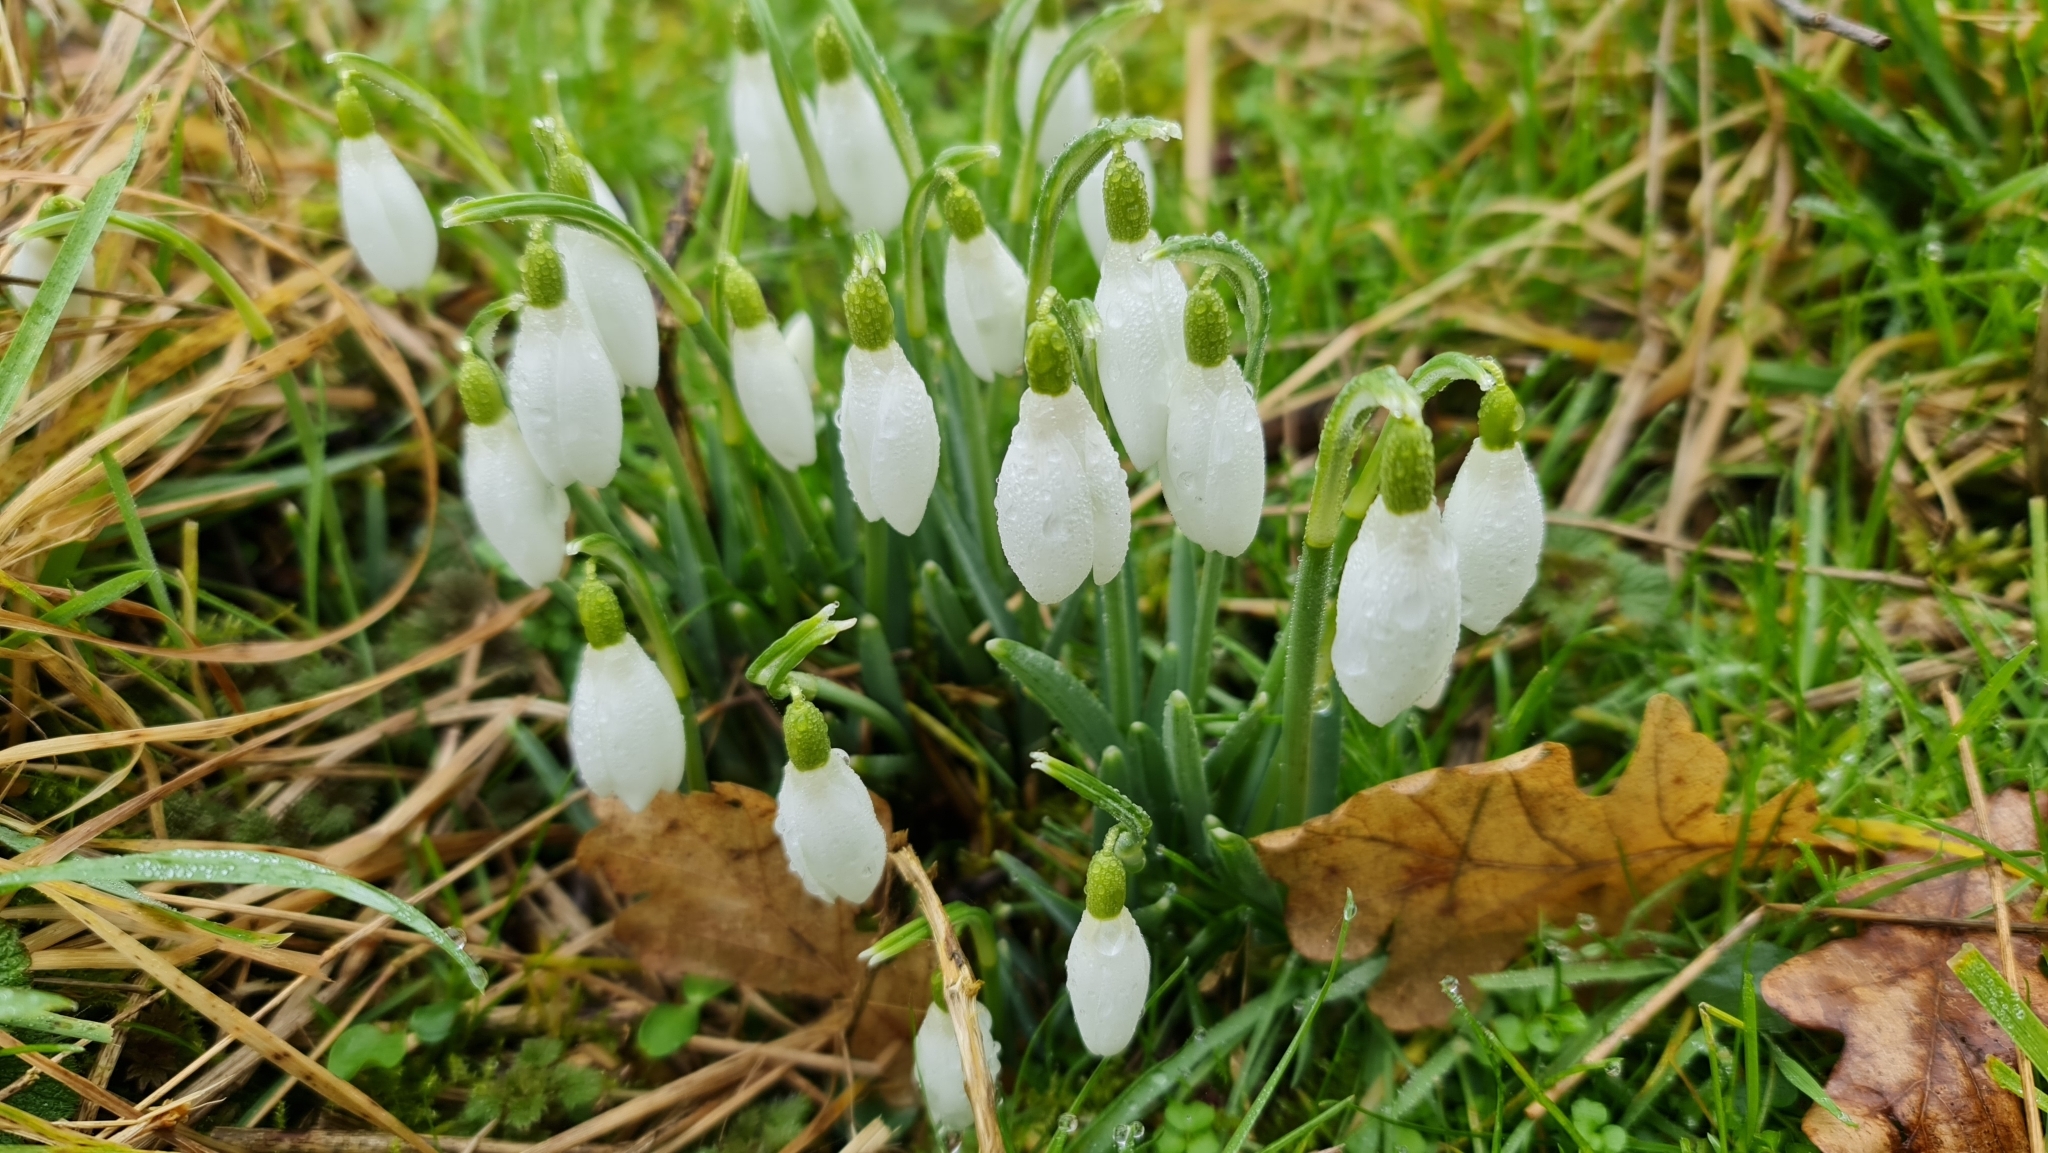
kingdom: Plantae
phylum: Tracheophyta
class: Liliopsida
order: Asparagales
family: Amaryllidaceae
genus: Galanthus
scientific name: Galanthus nivalis
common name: Snowdrop
